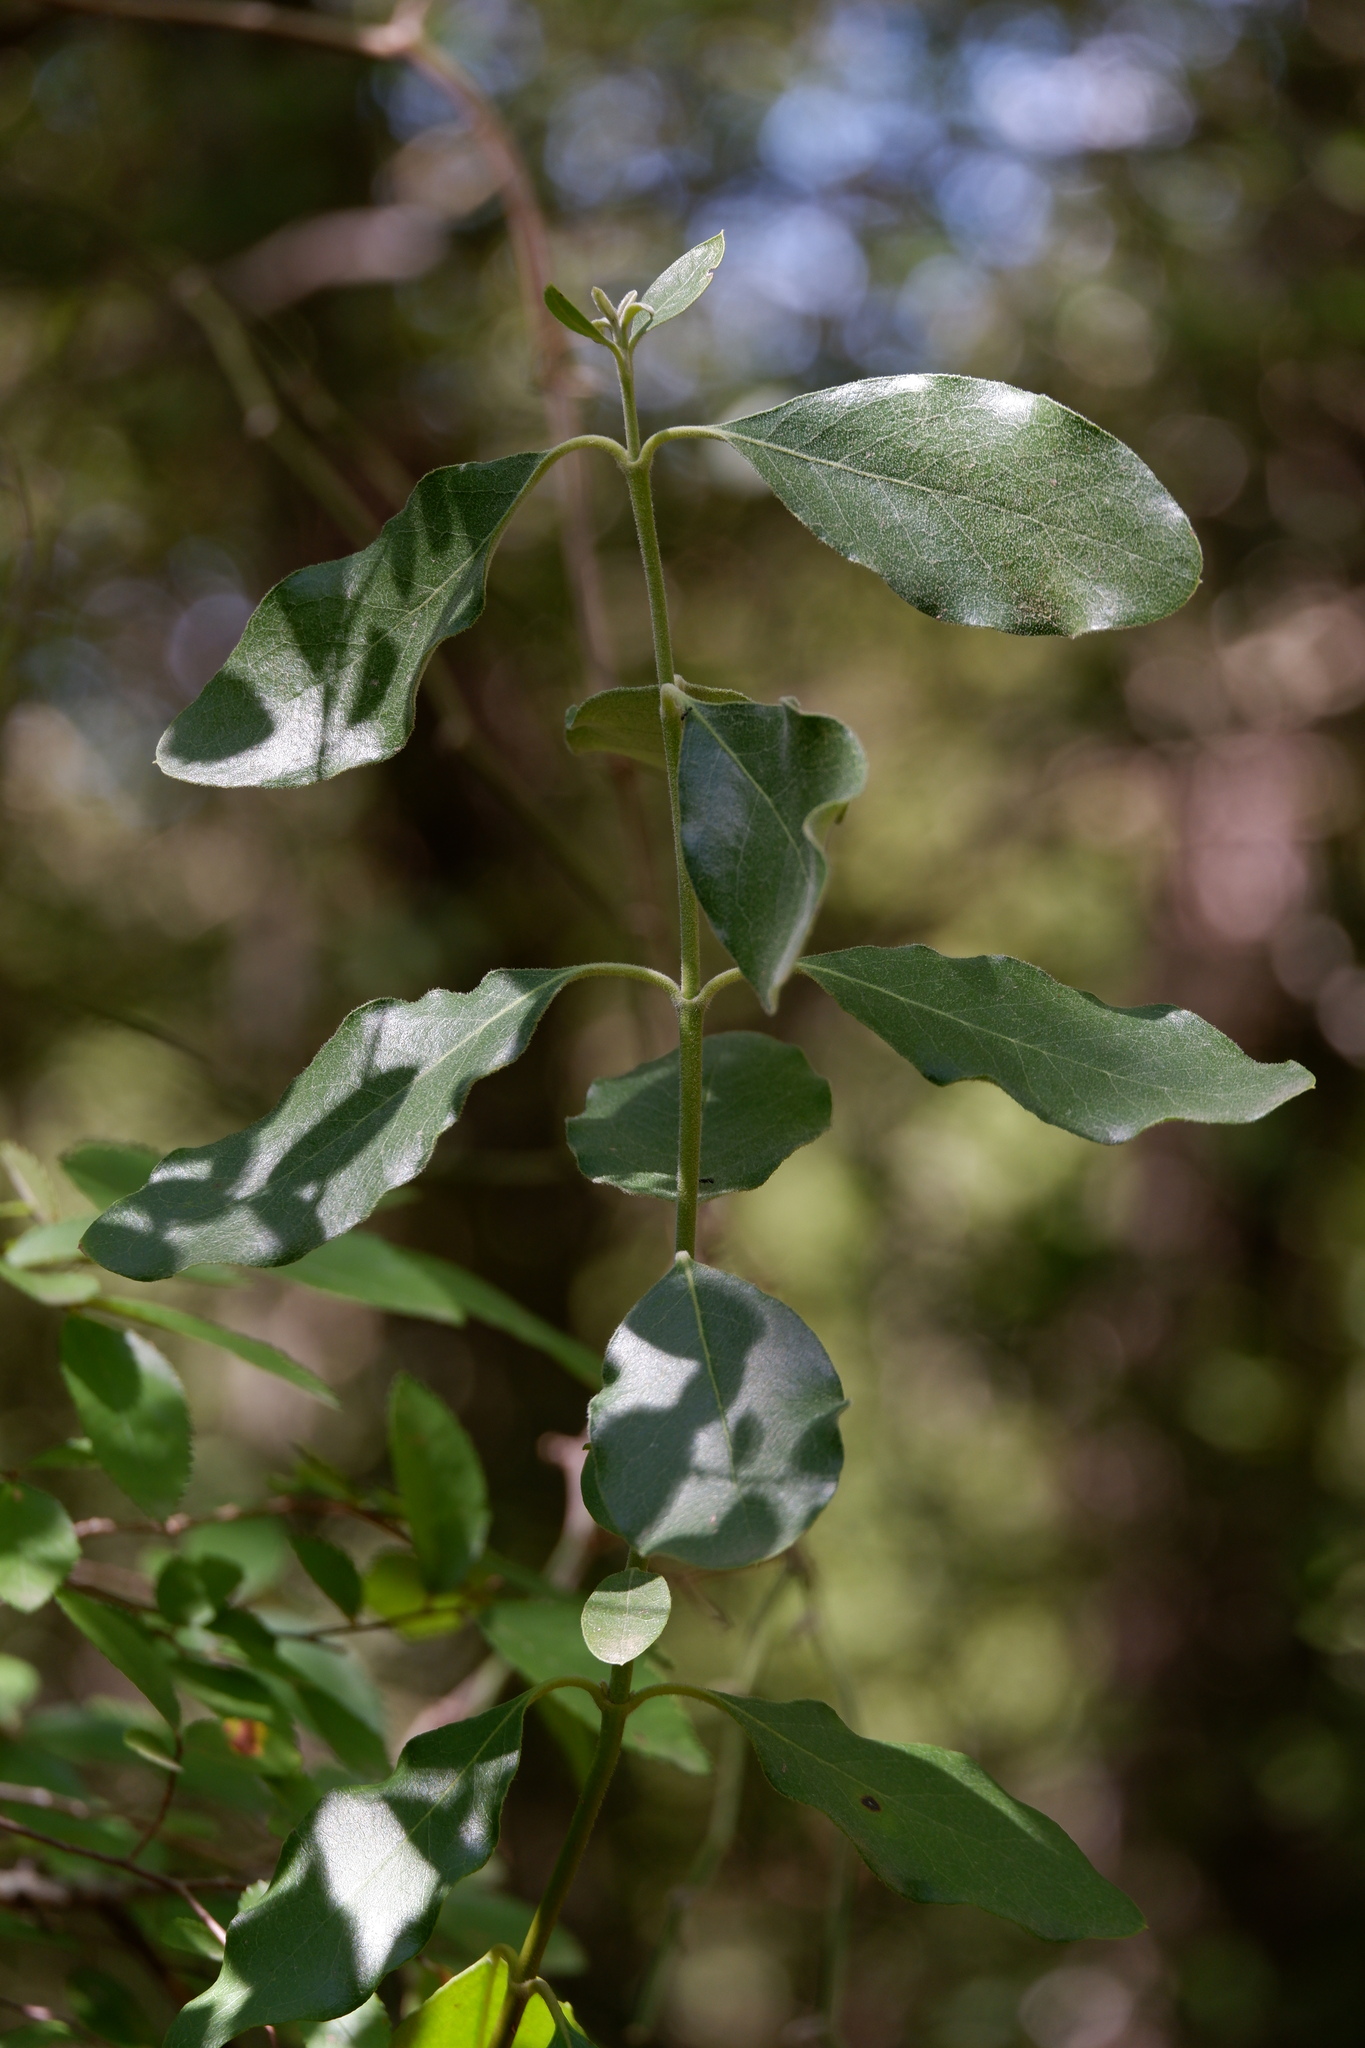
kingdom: Plantae
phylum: Tracheophyta
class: Magnoliopsida
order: Garryales
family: Garryaceae
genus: Garrya
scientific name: Garrya lindheimeri
